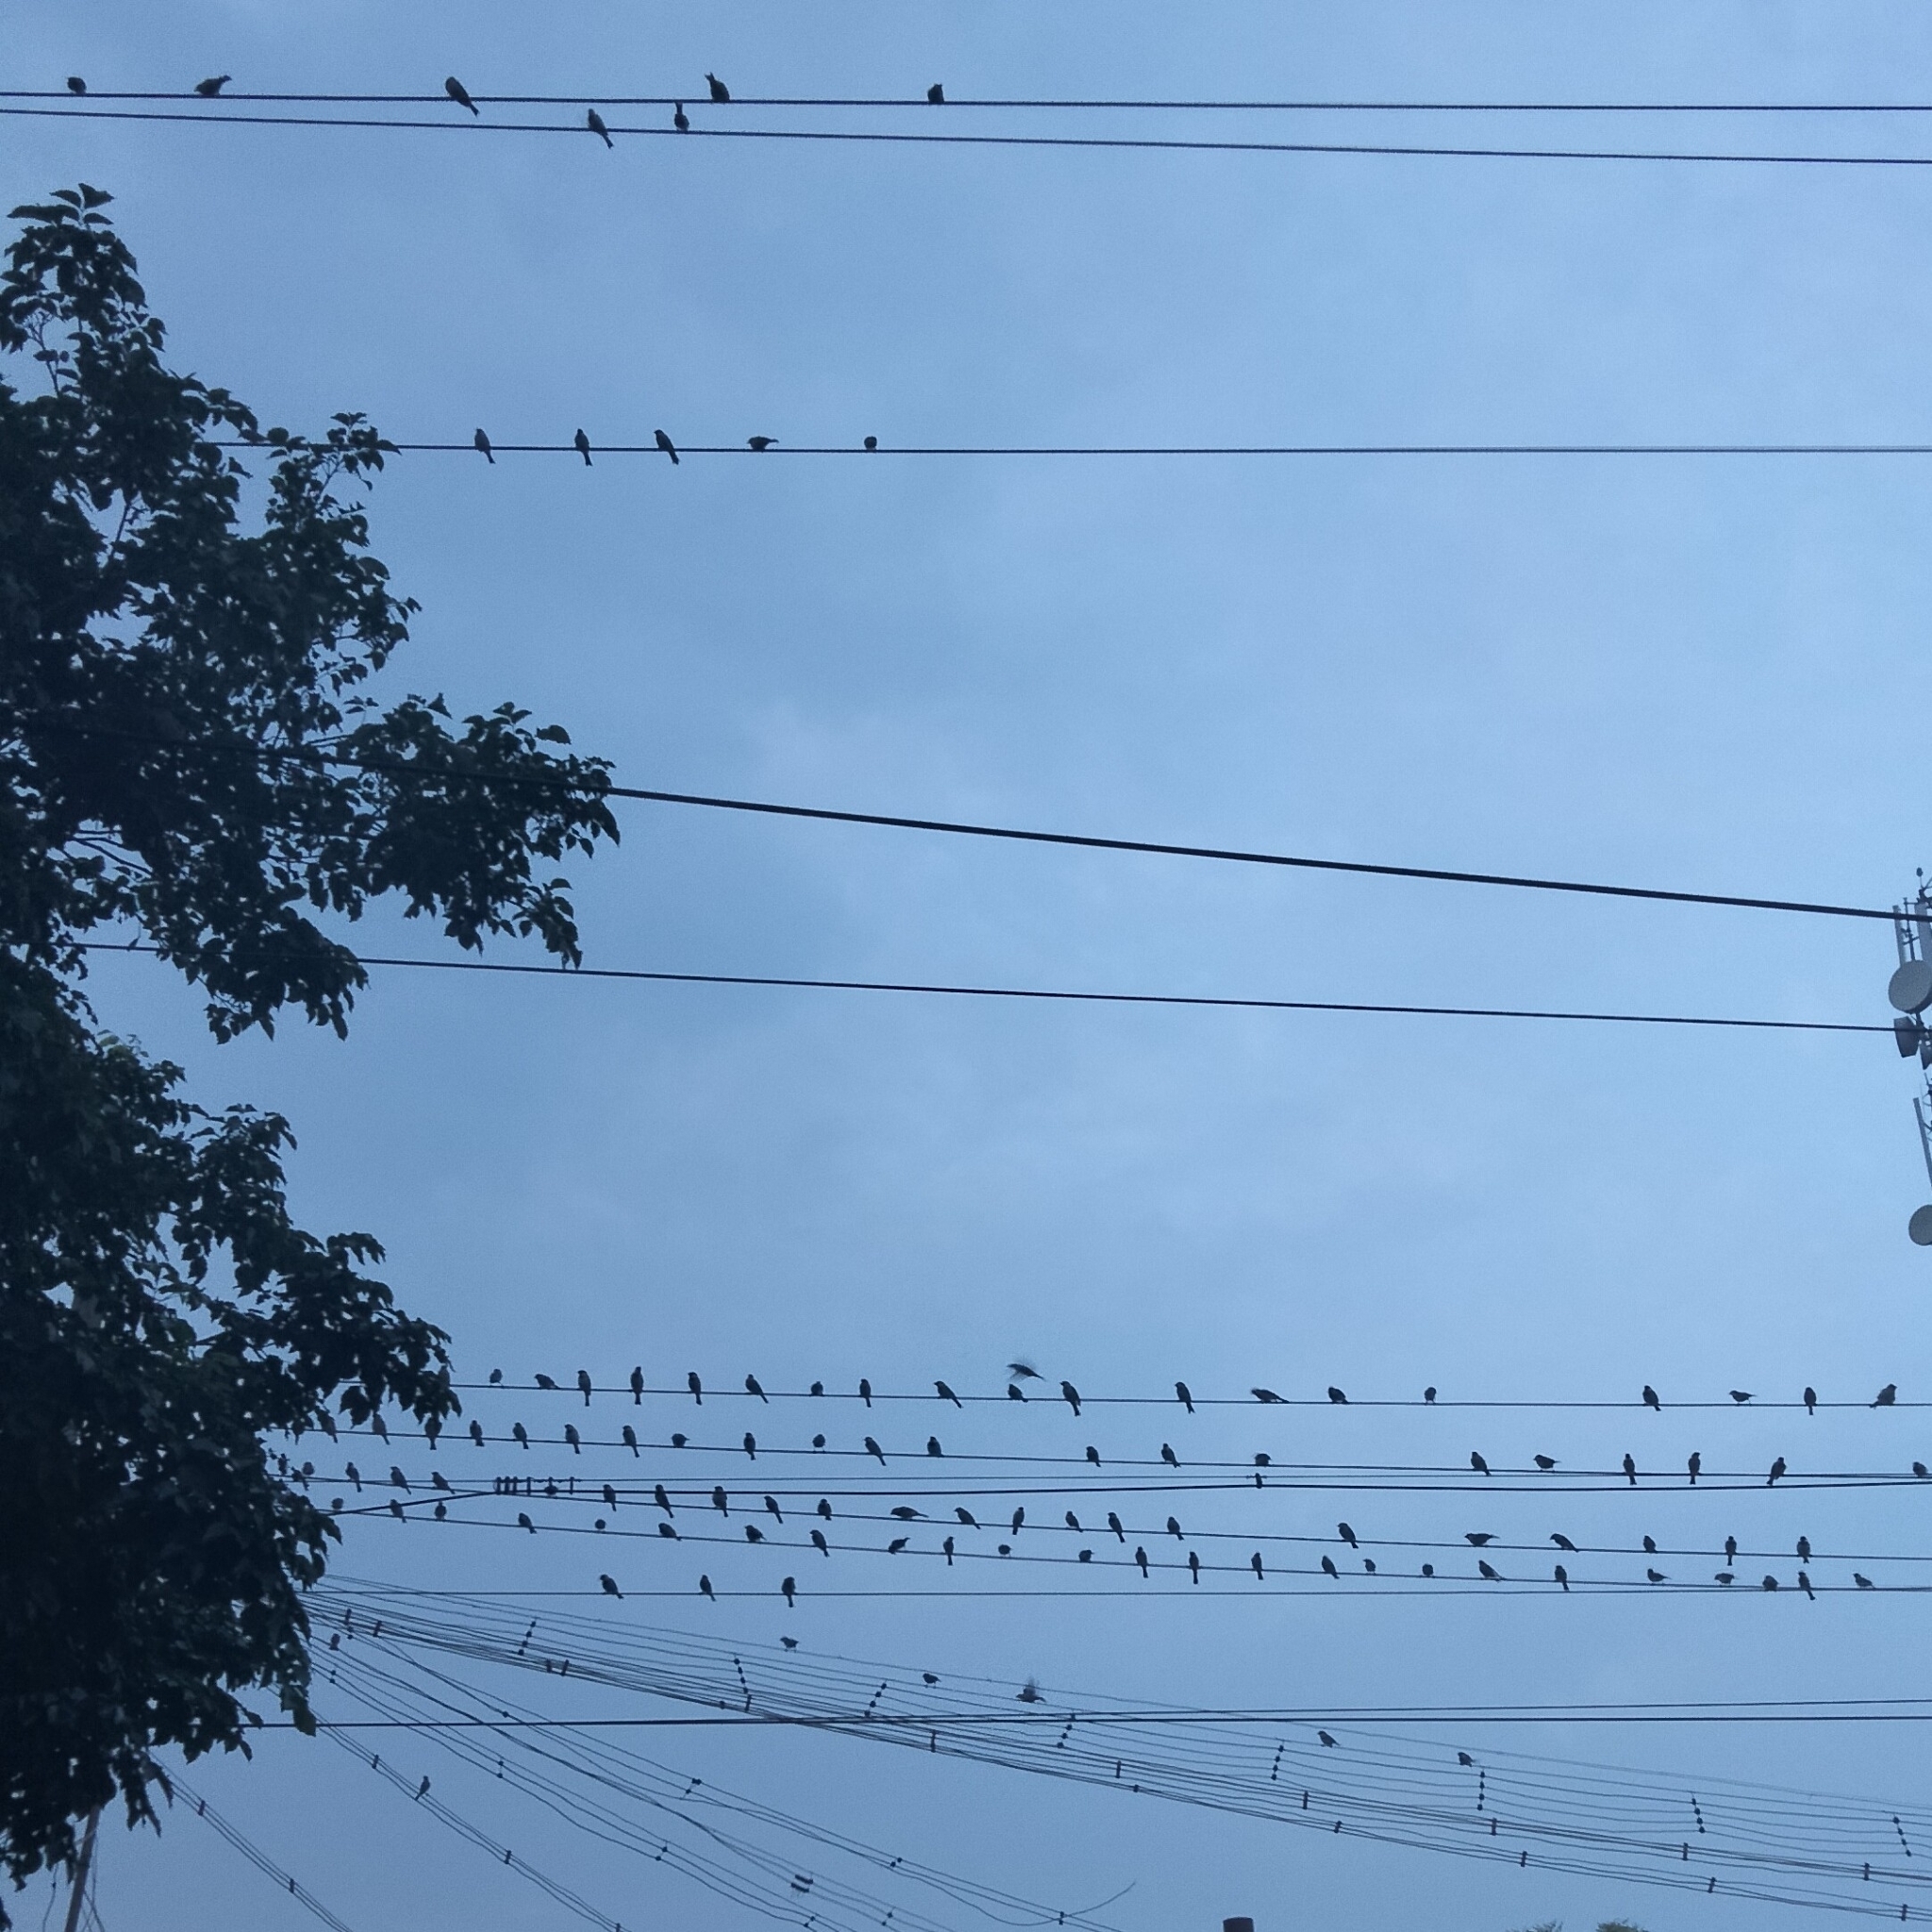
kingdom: Animalia
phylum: Chordata
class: Aves
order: Passeriformes
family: Passeridae
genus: Passer
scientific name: Passer domesticus
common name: House sparrow
